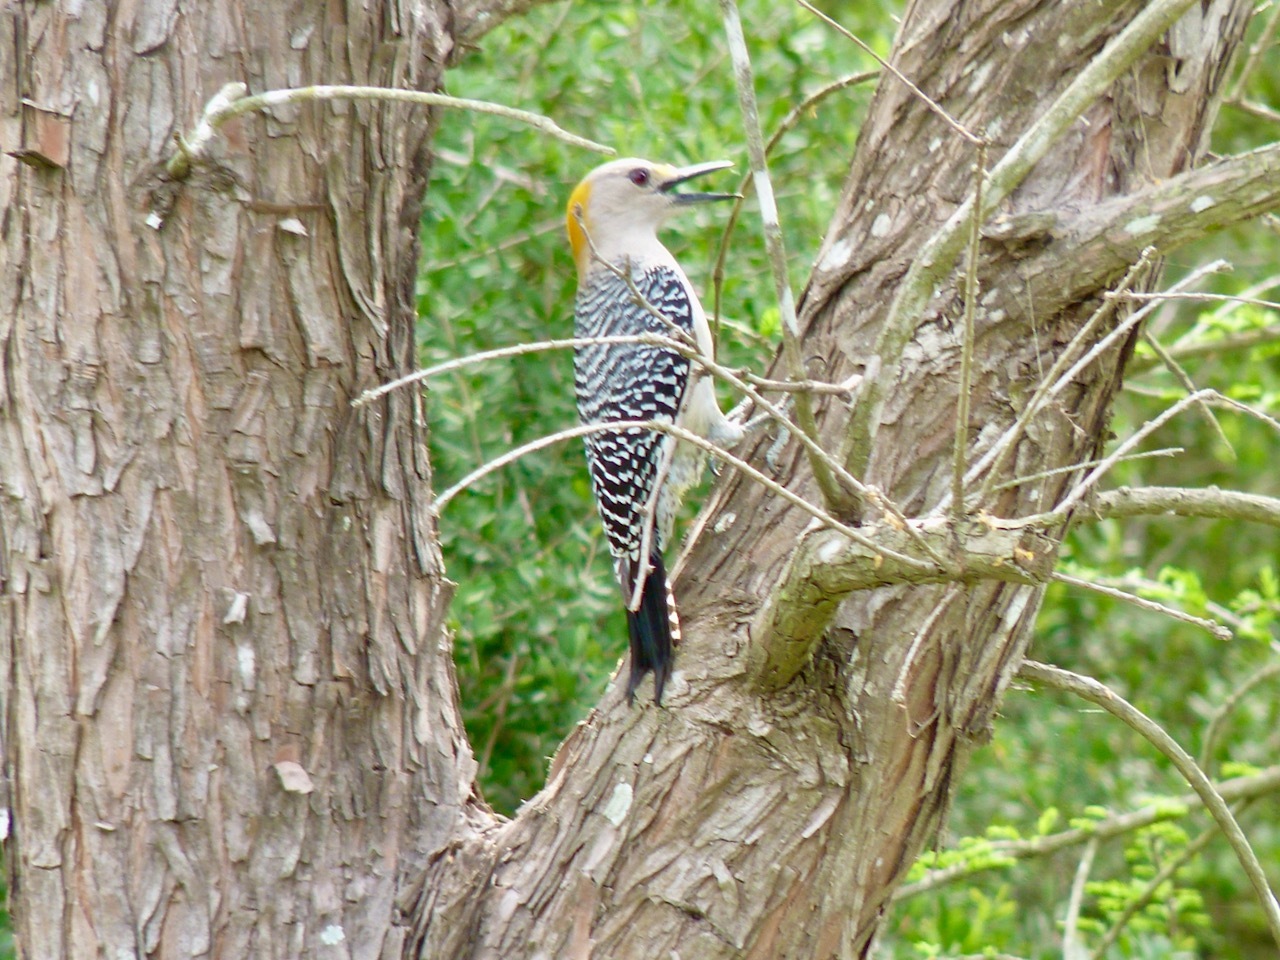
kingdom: Animalia
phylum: Chordata
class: Aves
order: Piciformes
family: Picidae
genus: Melanerpes
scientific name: Melanerpes aurifrons
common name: Golden-fronted woodpecker
